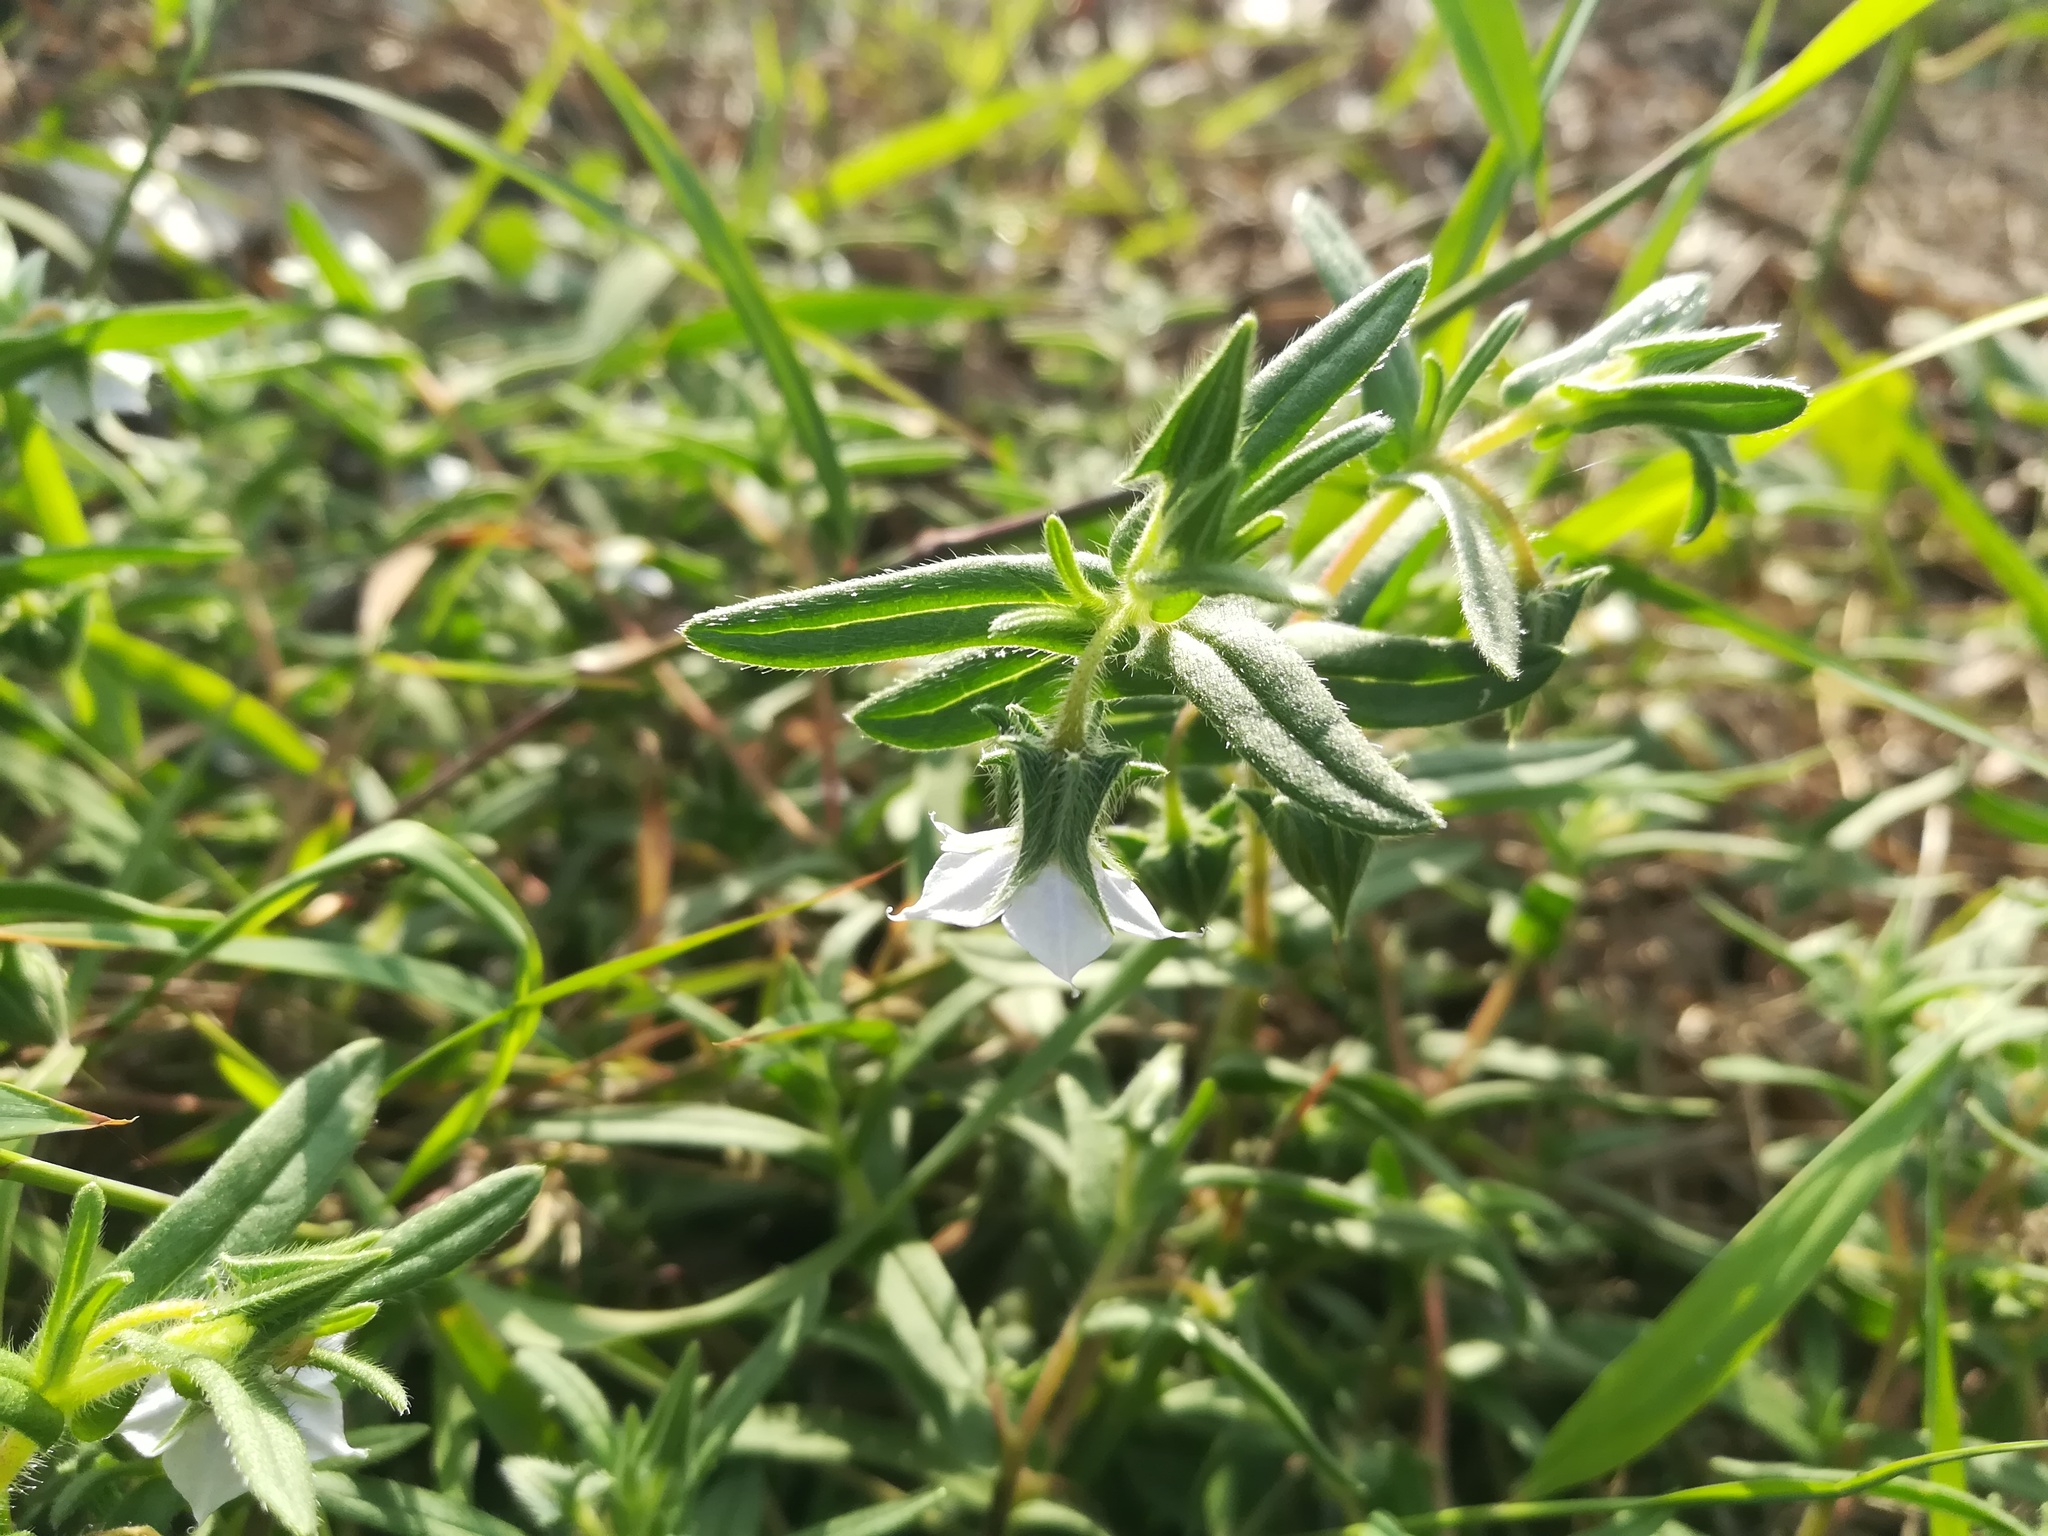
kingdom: Plantae
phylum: Tracheophyta
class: Magnoliopsida
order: Boraginales
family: Boraginaceae
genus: Trichodesma
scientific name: Trichodesma indicum
